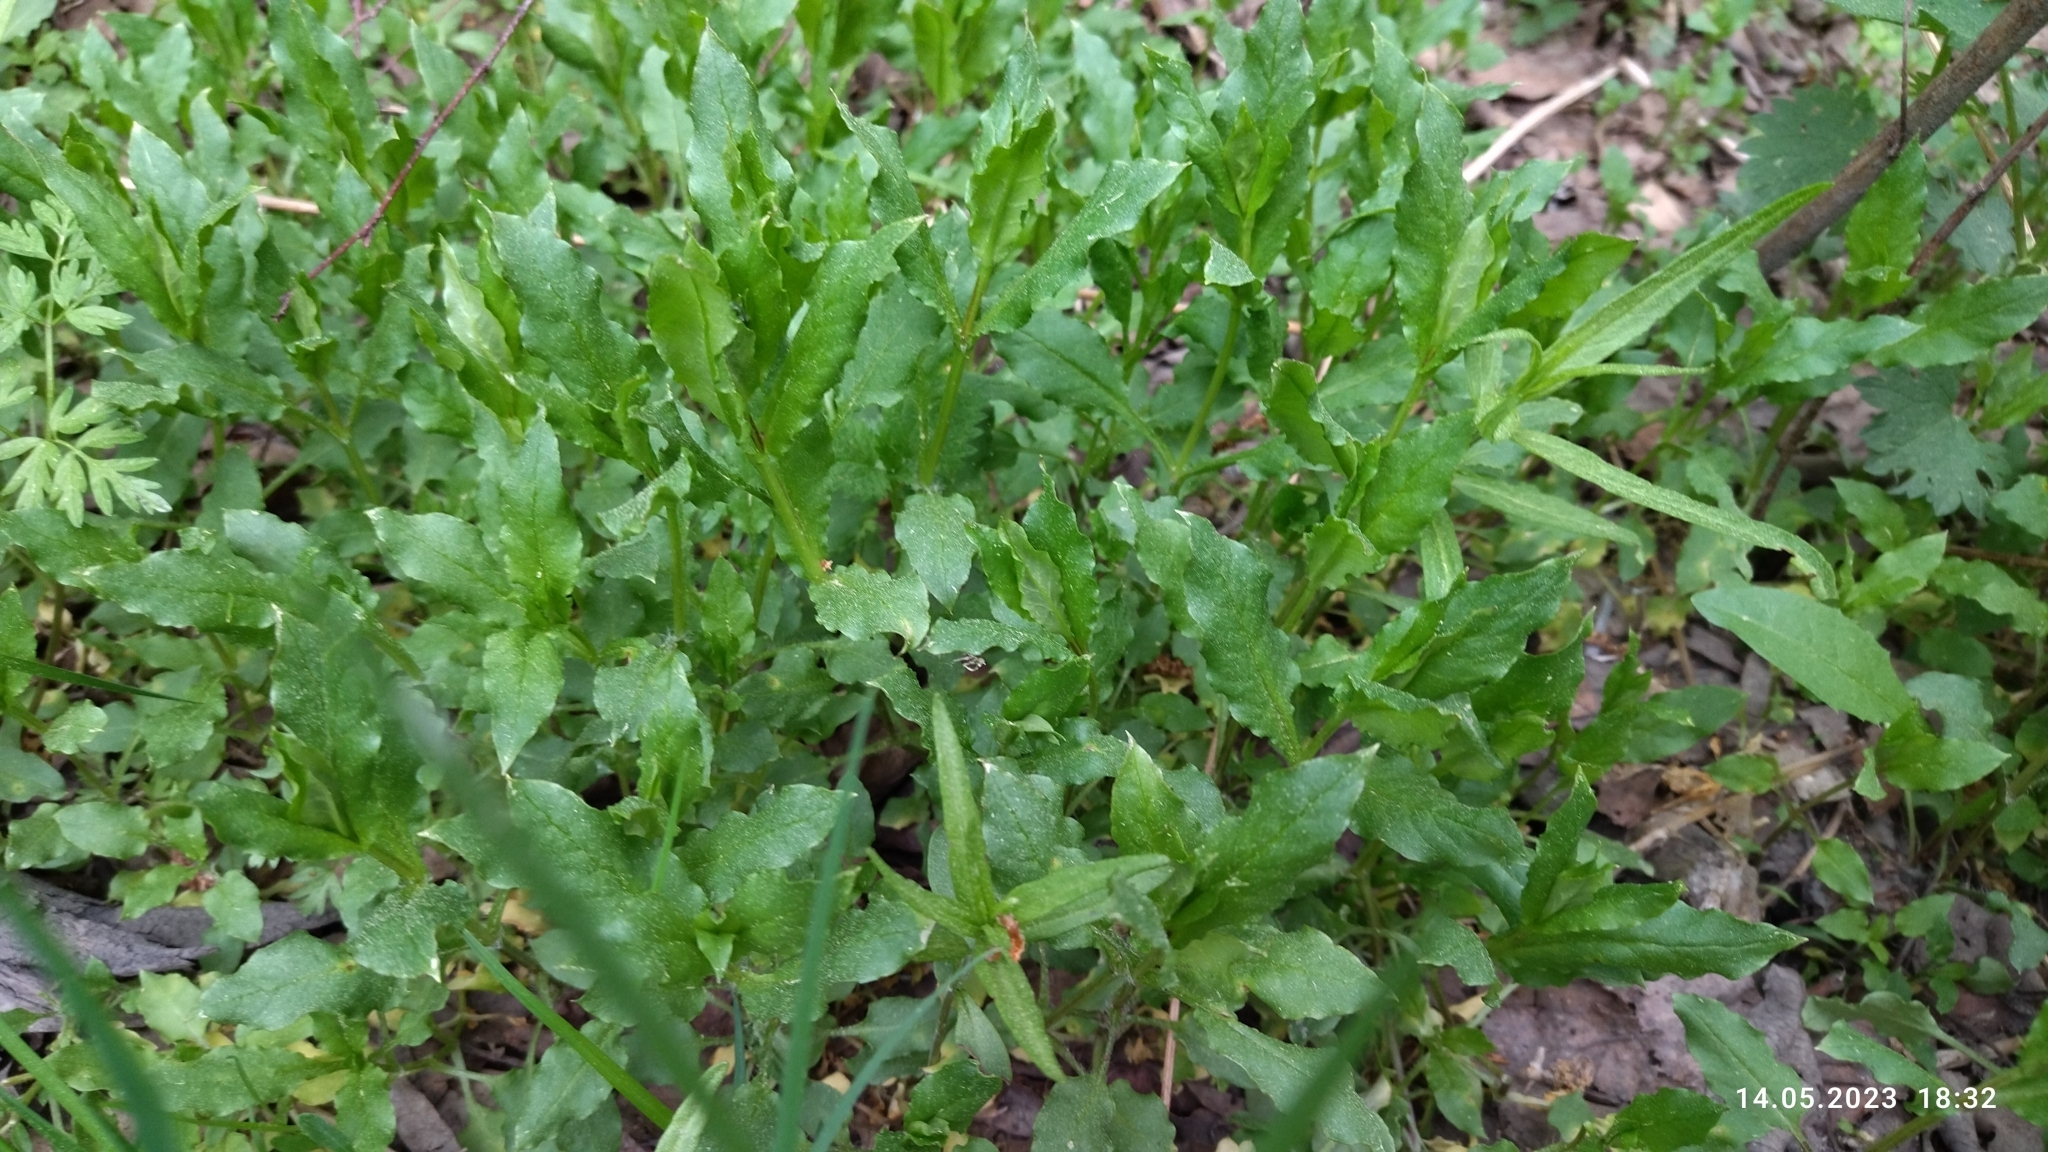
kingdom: Plantae
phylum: Tracheophyta
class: Magnoliopsida
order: Caryophyllales
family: Caryophyllaceae
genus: Stellaria
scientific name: Stellaria aquatica
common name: Water chickweed
